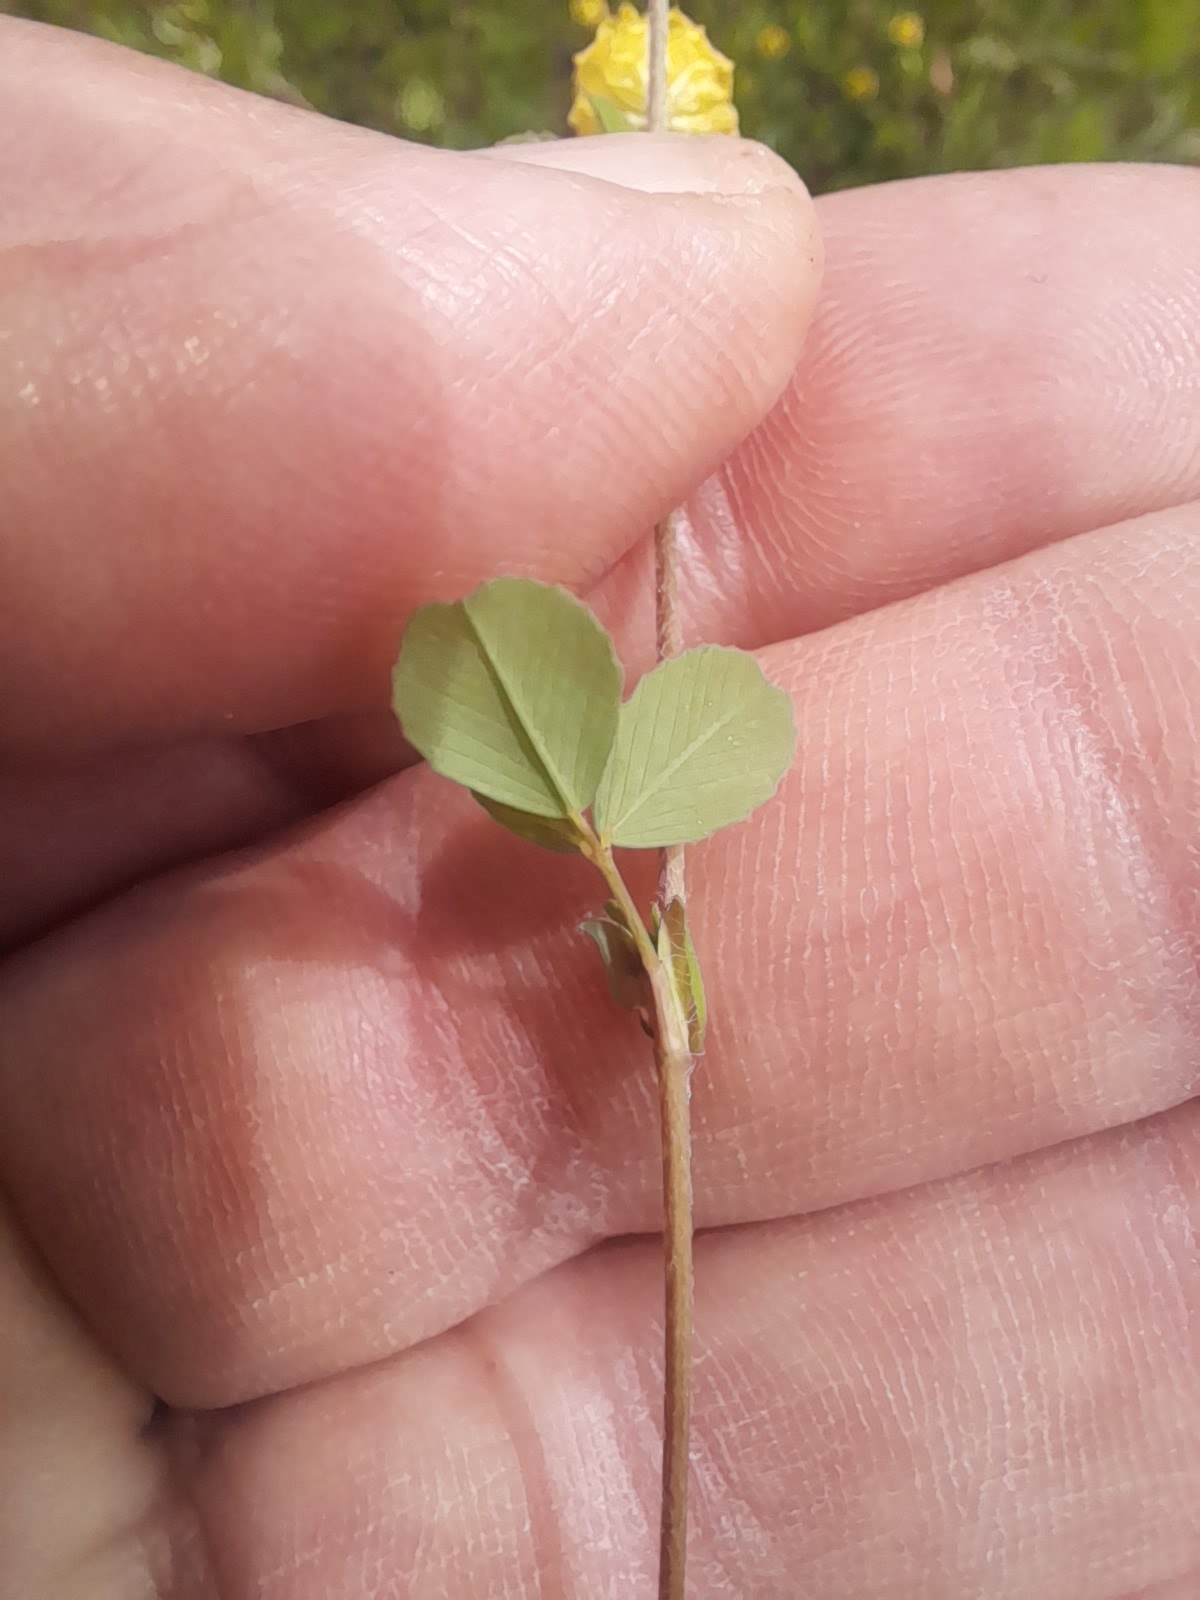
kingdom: Plantae
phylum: Tracheophyta
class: Magnoliopsida
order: Fabales
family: Fabaceae
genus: Trifolium
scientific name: Trifolium campestre
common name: Field clover
